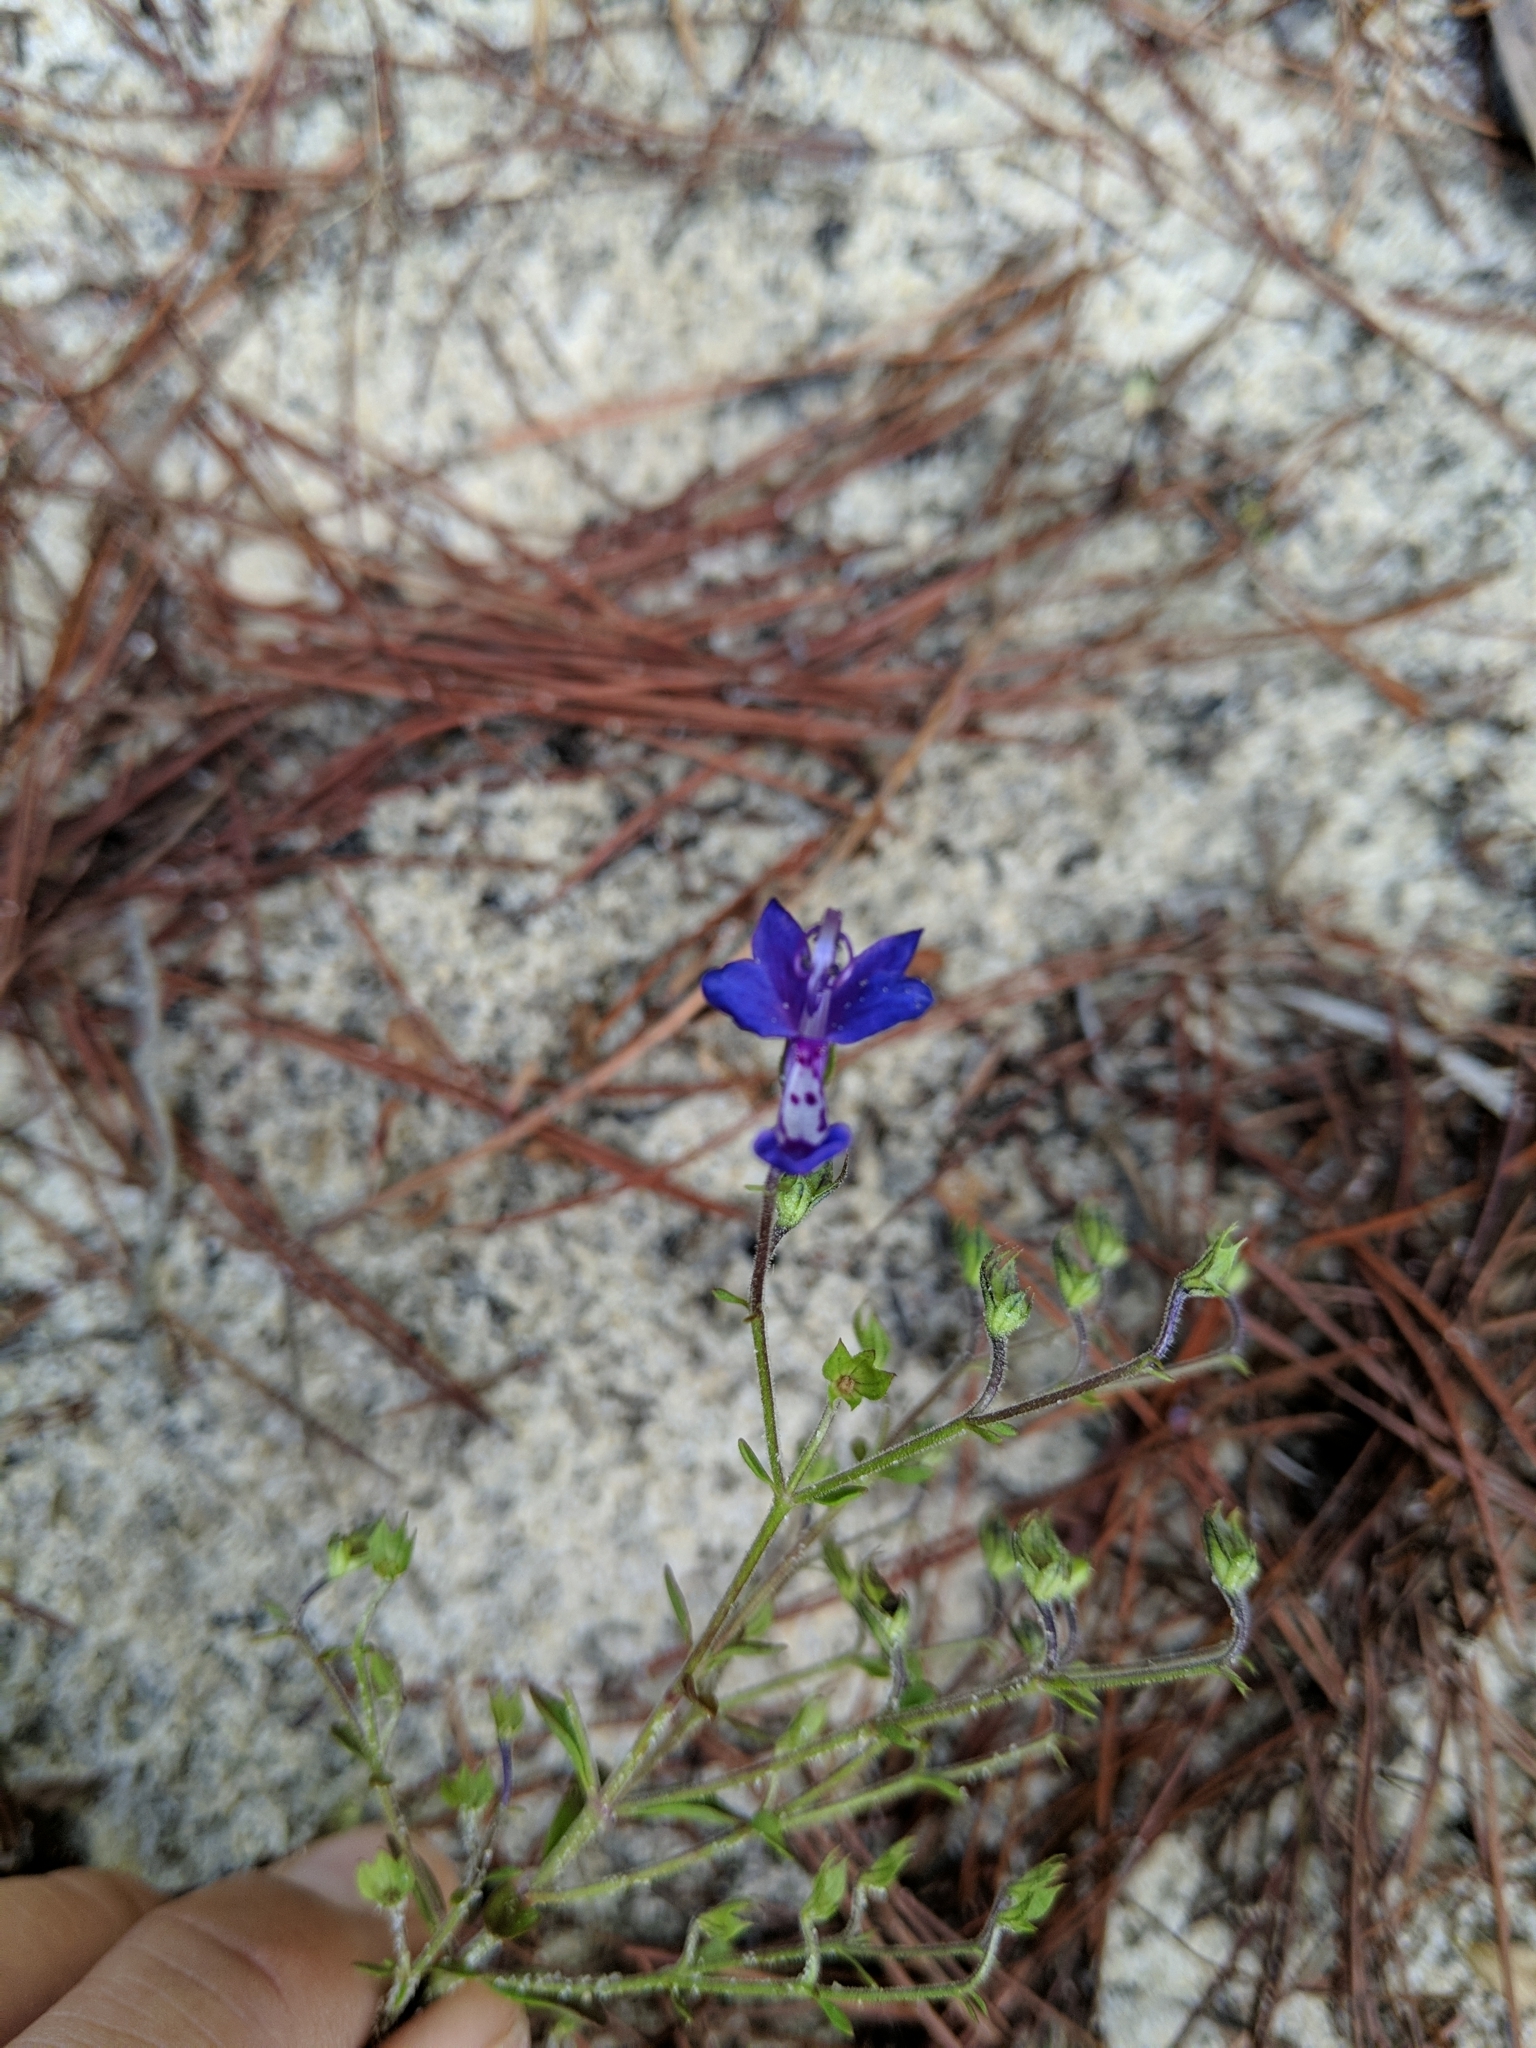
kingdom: Plantae
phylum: Tracheophyta
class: Magnoliopsida
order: Lamiales
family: Lamiaceae
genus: Trichostema
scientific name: Trichostema suffrutescens
